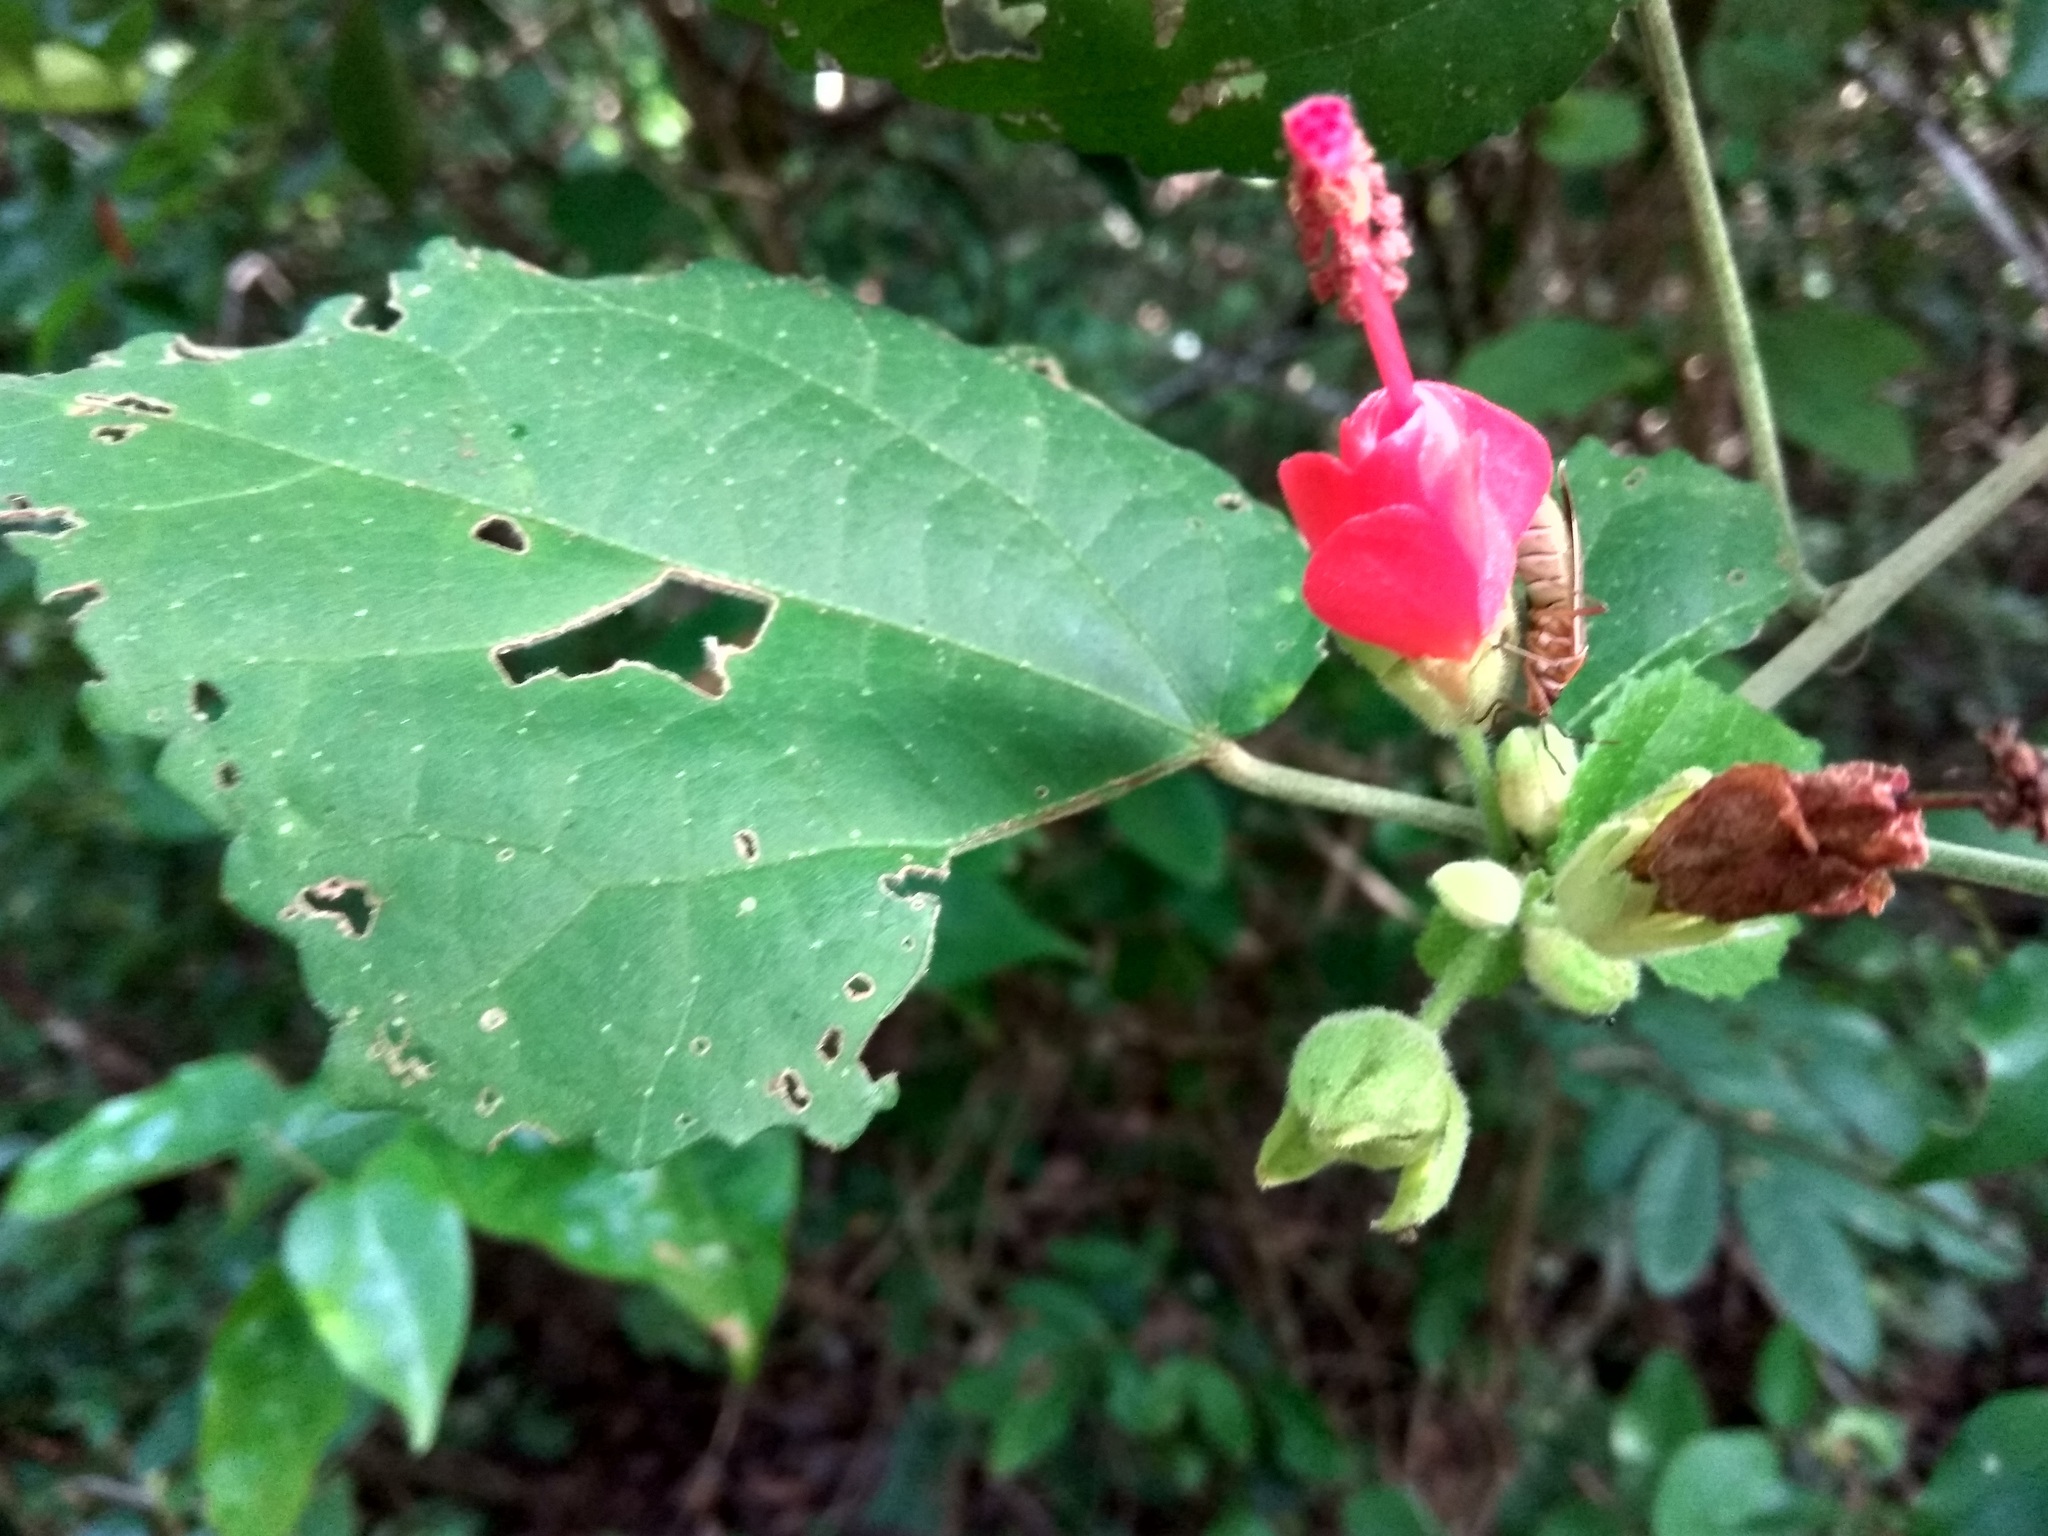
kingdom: Plantae
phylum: Tracheophyta
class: Magnoliopsida
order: Malvales
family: Malvaceae
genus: Malvaviscus
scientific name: Malvaviscus arboreus
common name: Wax mallow
